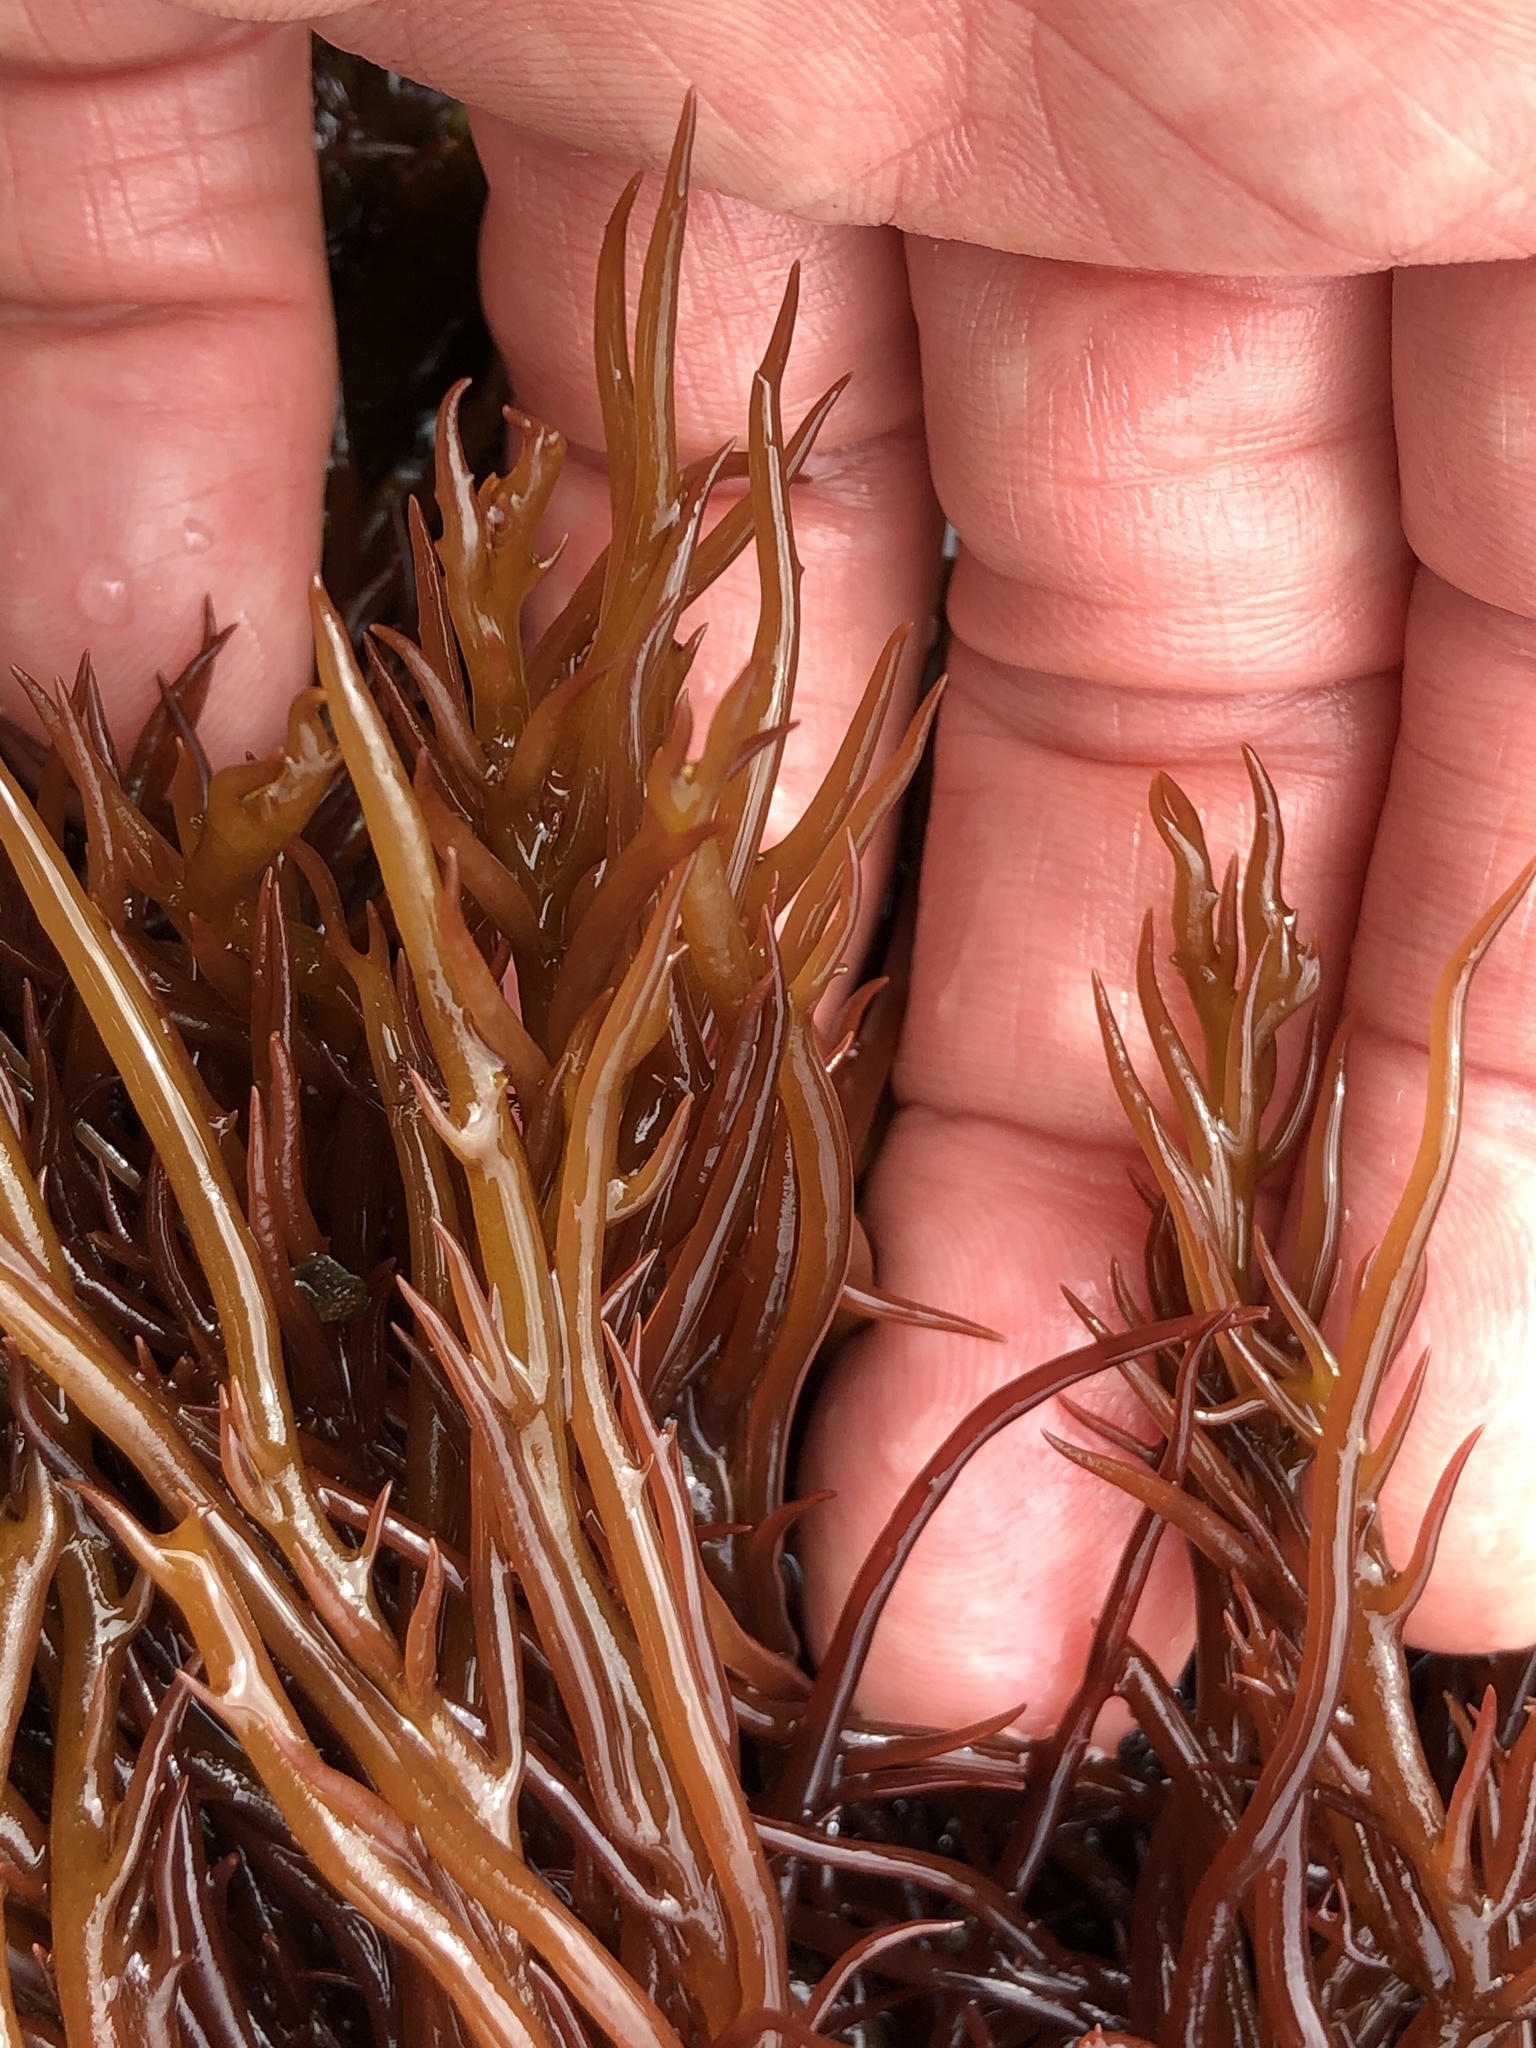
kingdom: Plantae
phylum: Rhodophyta
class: Florideophyceae
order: Gigartinales
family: Solieriaceae
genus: Sarcodiotheca
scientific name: Sarcodiotheca gaudichaudii
